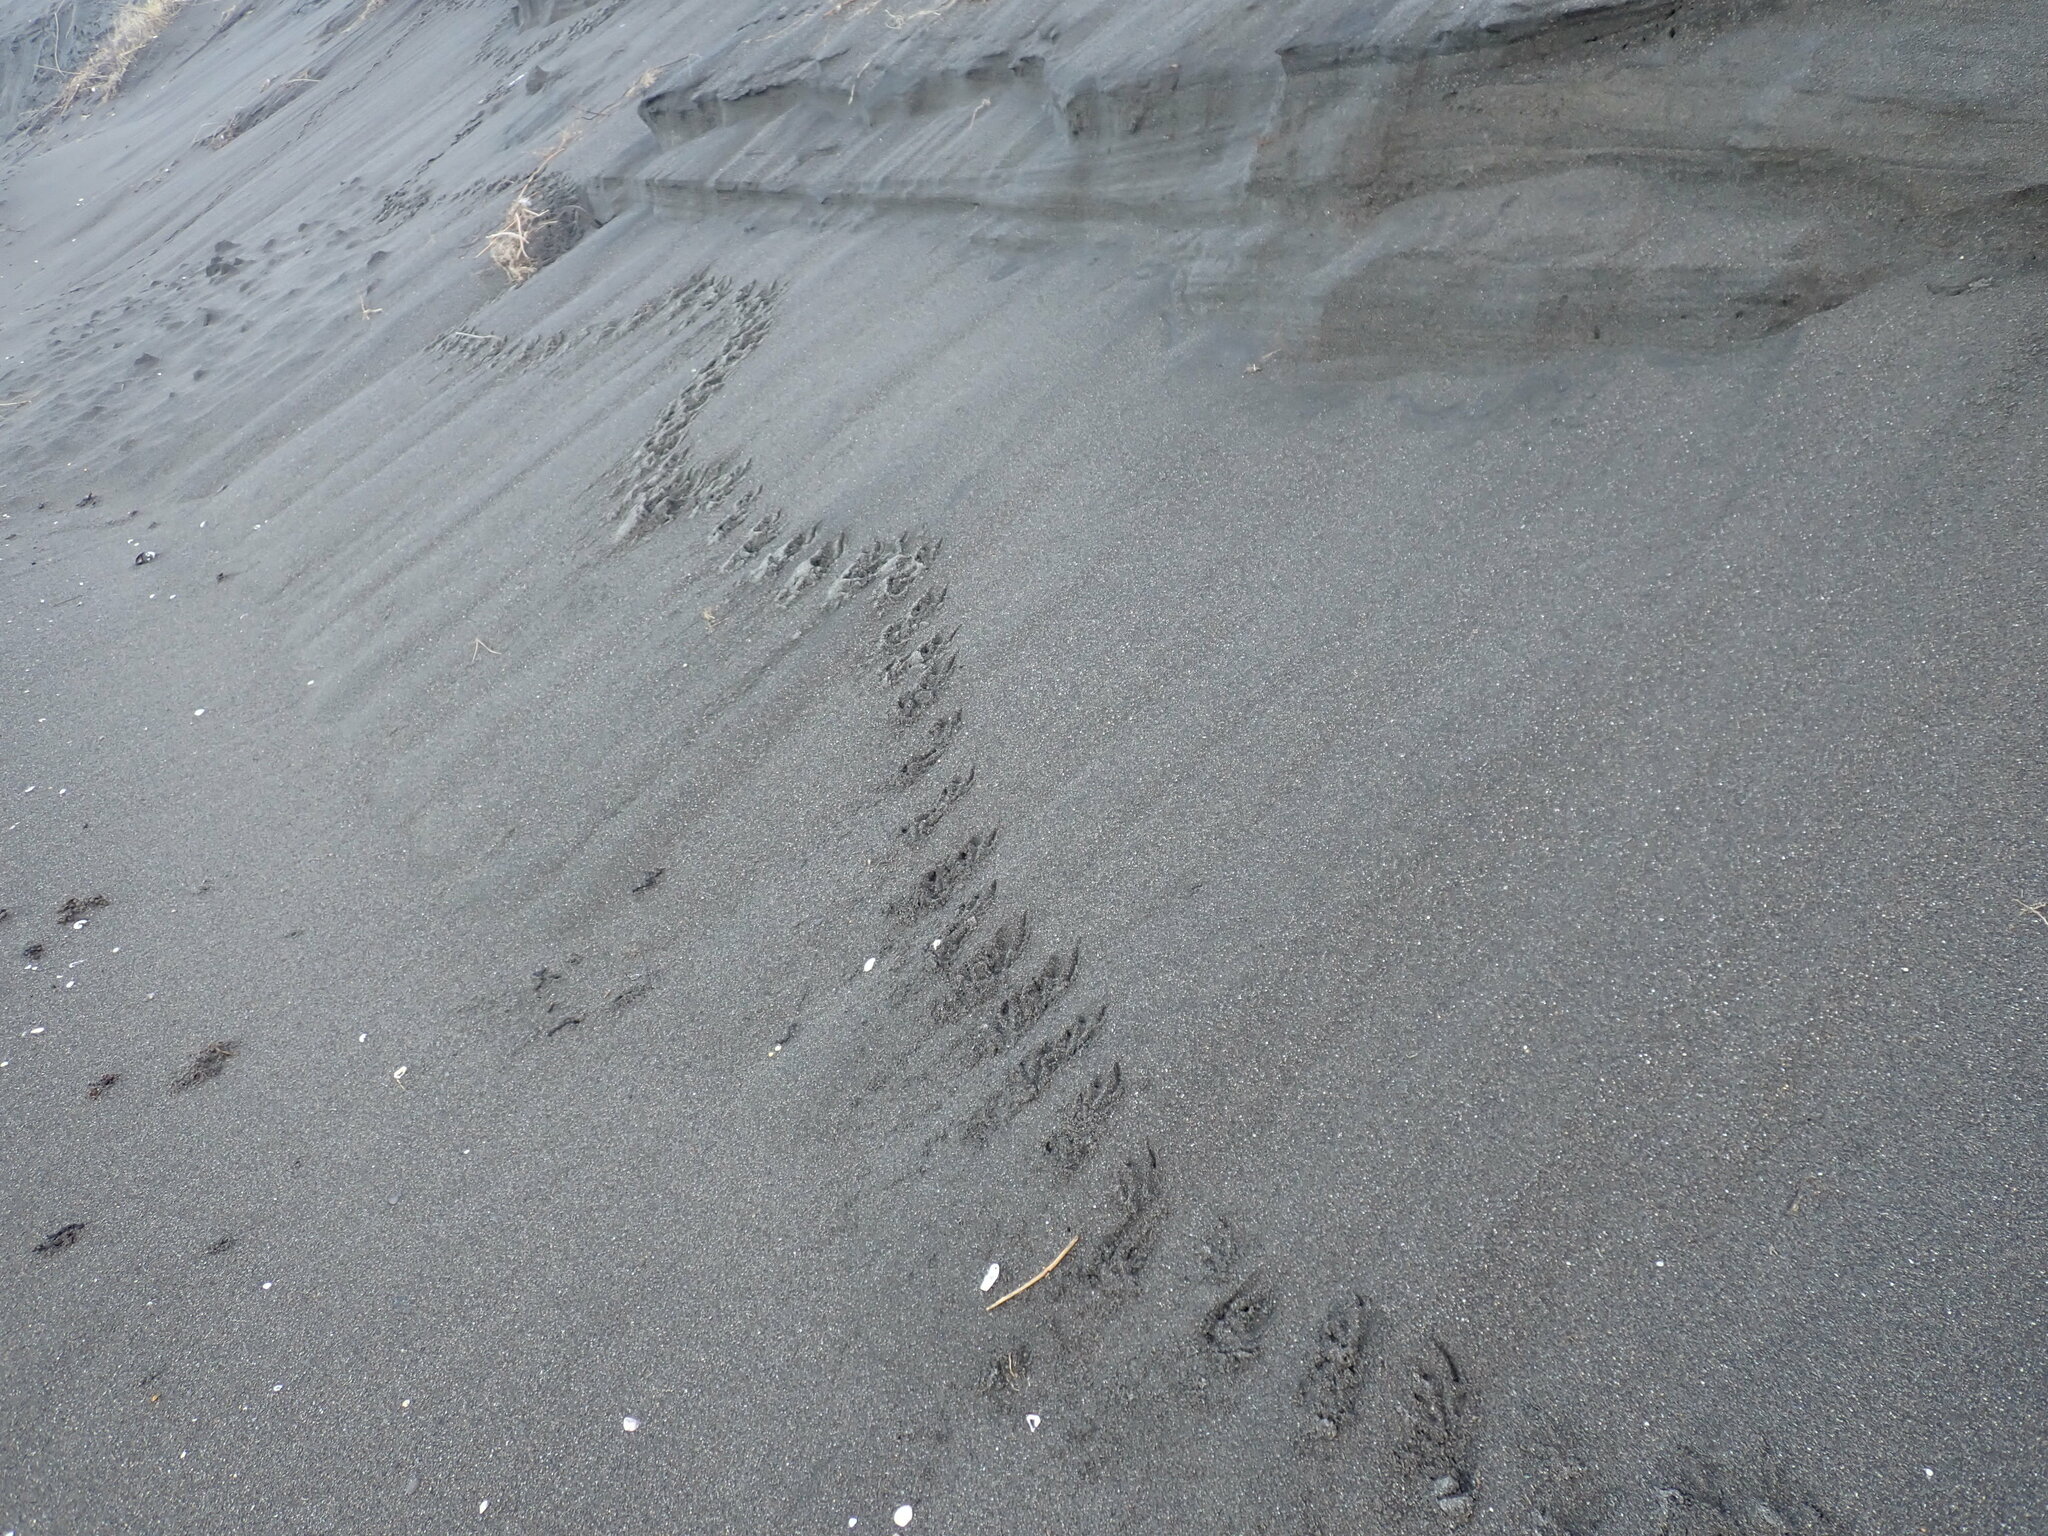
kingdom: Animalia
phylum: Chordata
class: Aves
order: Sphenisciformes
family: Spheniscidae
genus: Eudyptula
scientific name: Eudyptula minor
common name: Little penguin
